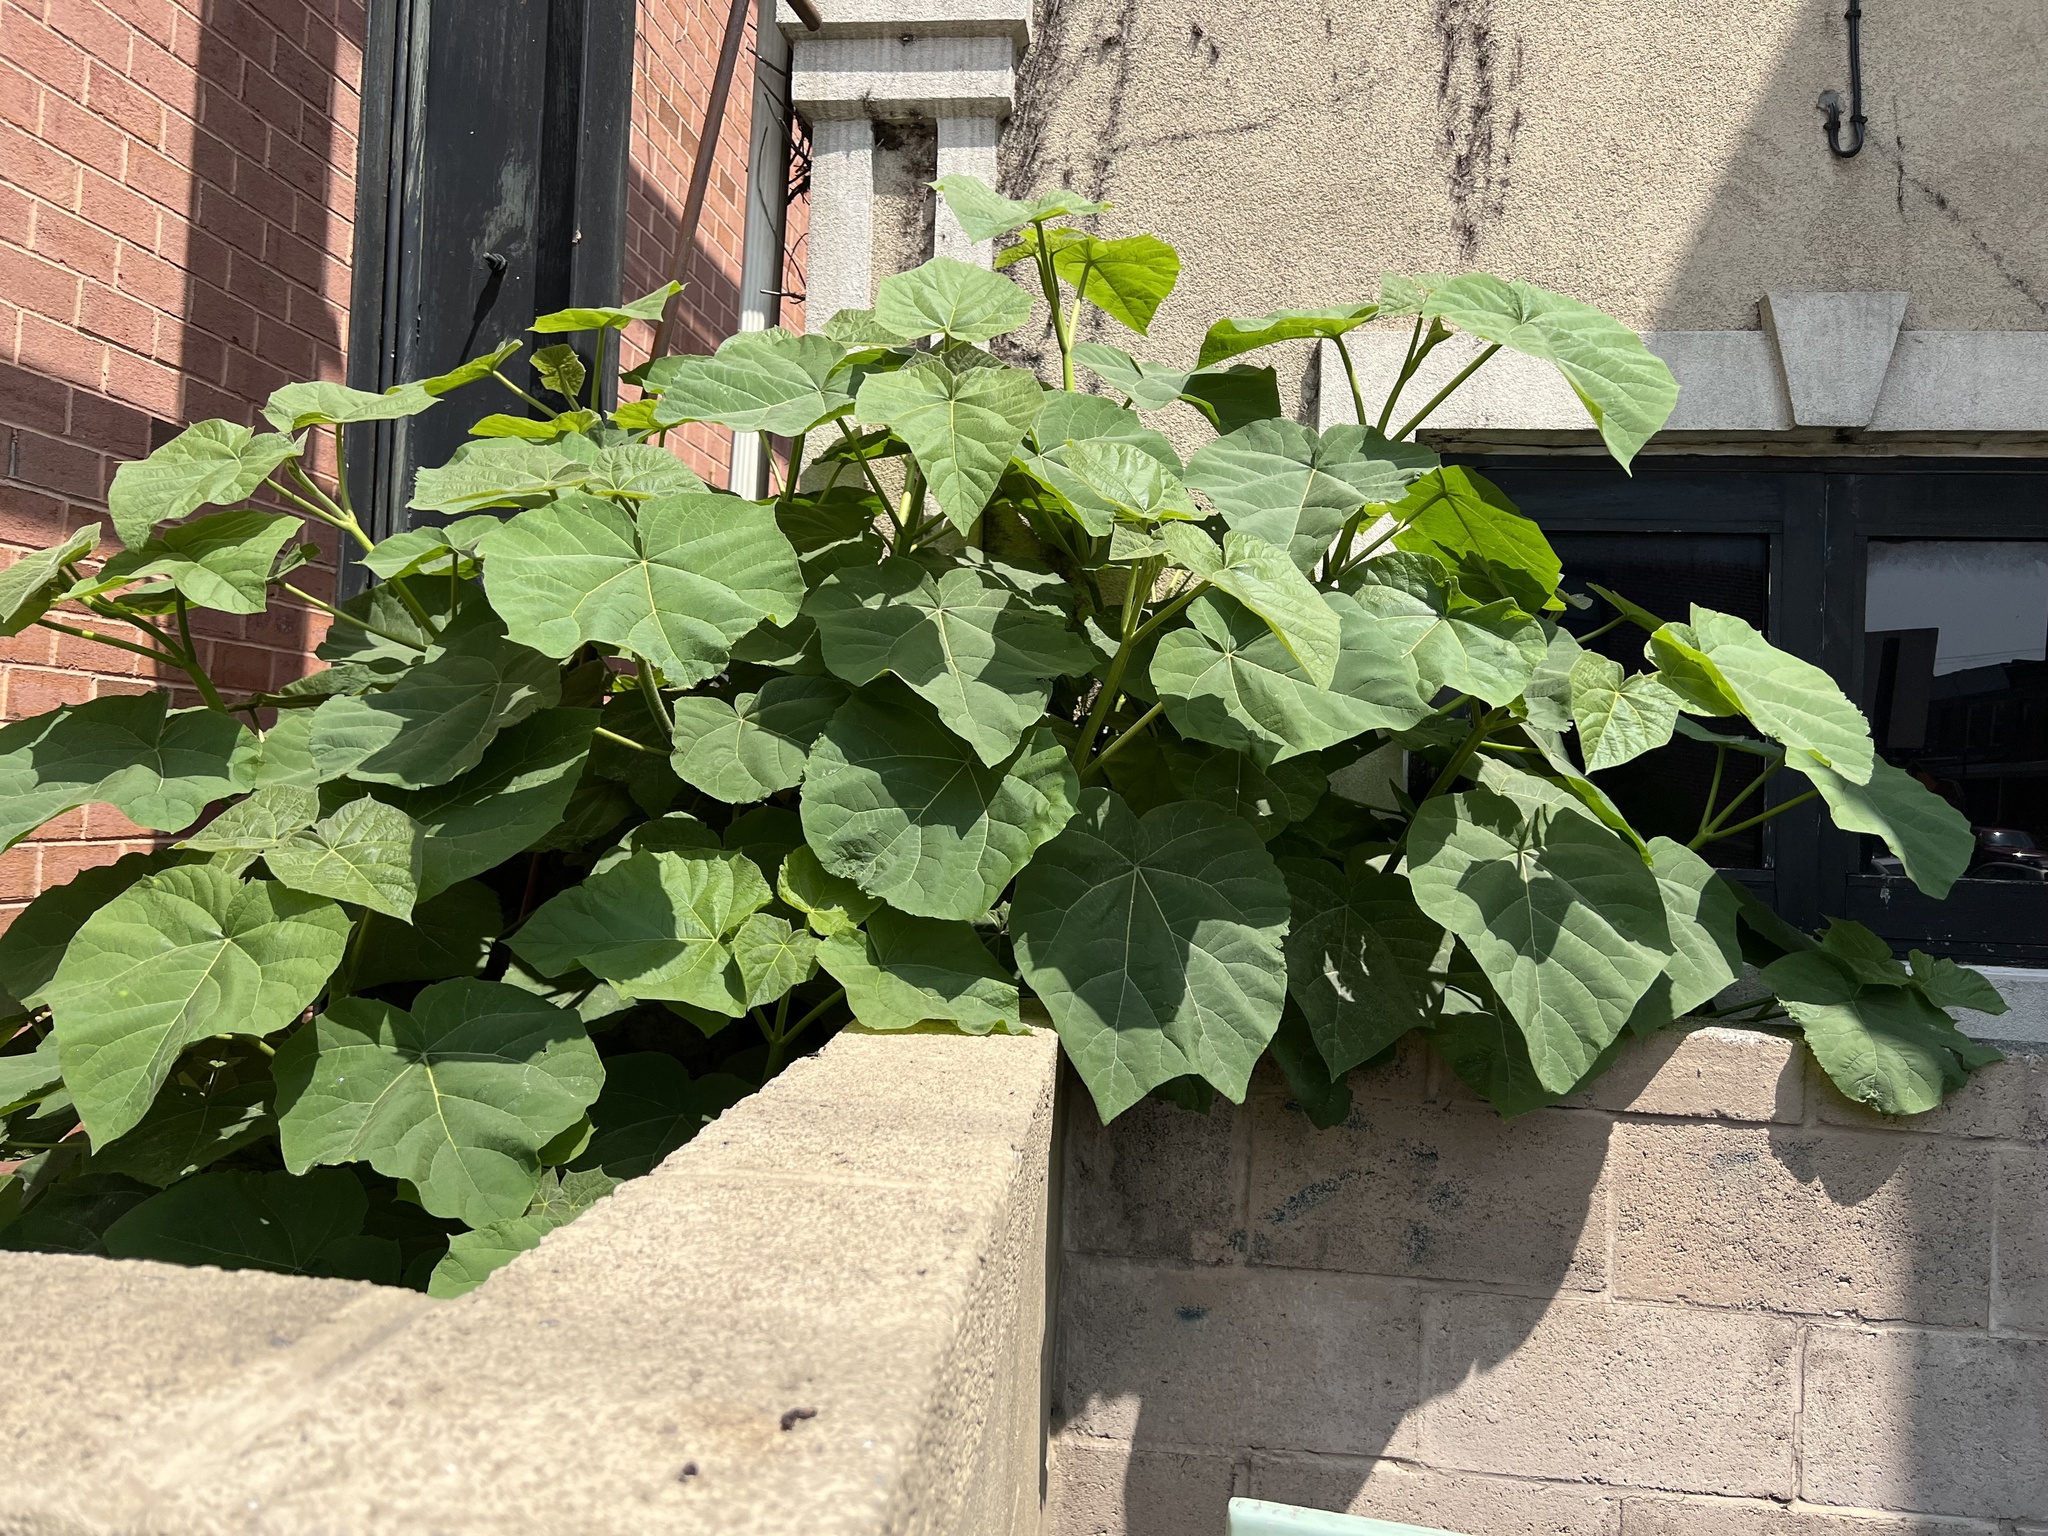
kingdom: Plantae
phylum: Tracheophyta
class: Magnoliopsida
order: Lamiales
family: Paulowniaceae
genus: Paulownia
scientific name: Paulownia tomentosa
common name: Foxglove-tree
